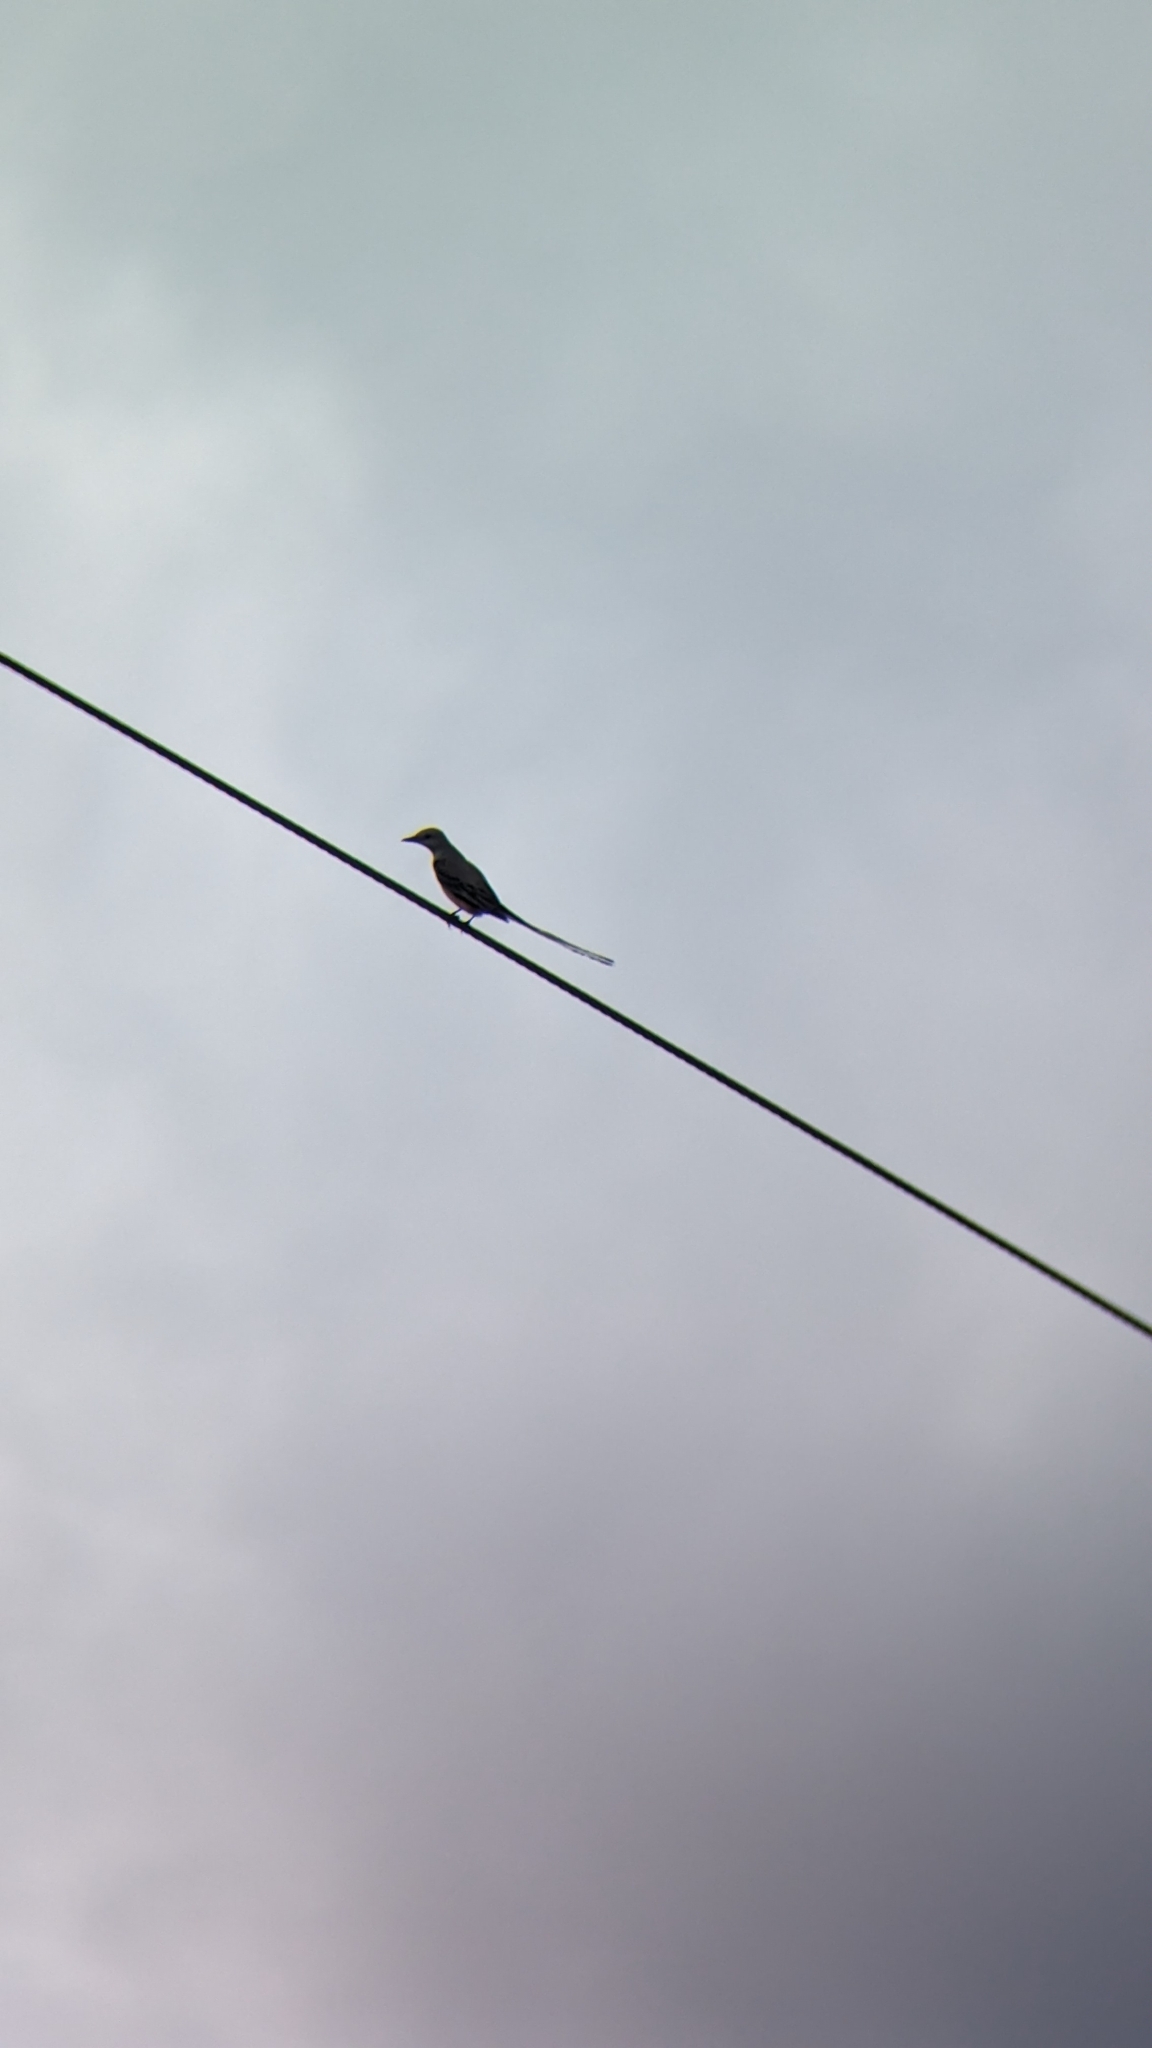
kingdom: Animalia
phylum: Chordata
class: Aves
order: Passeriformes
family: Tyrannidae
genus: Tyrannus
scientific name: Tyrannus forficatus
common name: Scissor-tailed flycatcher
